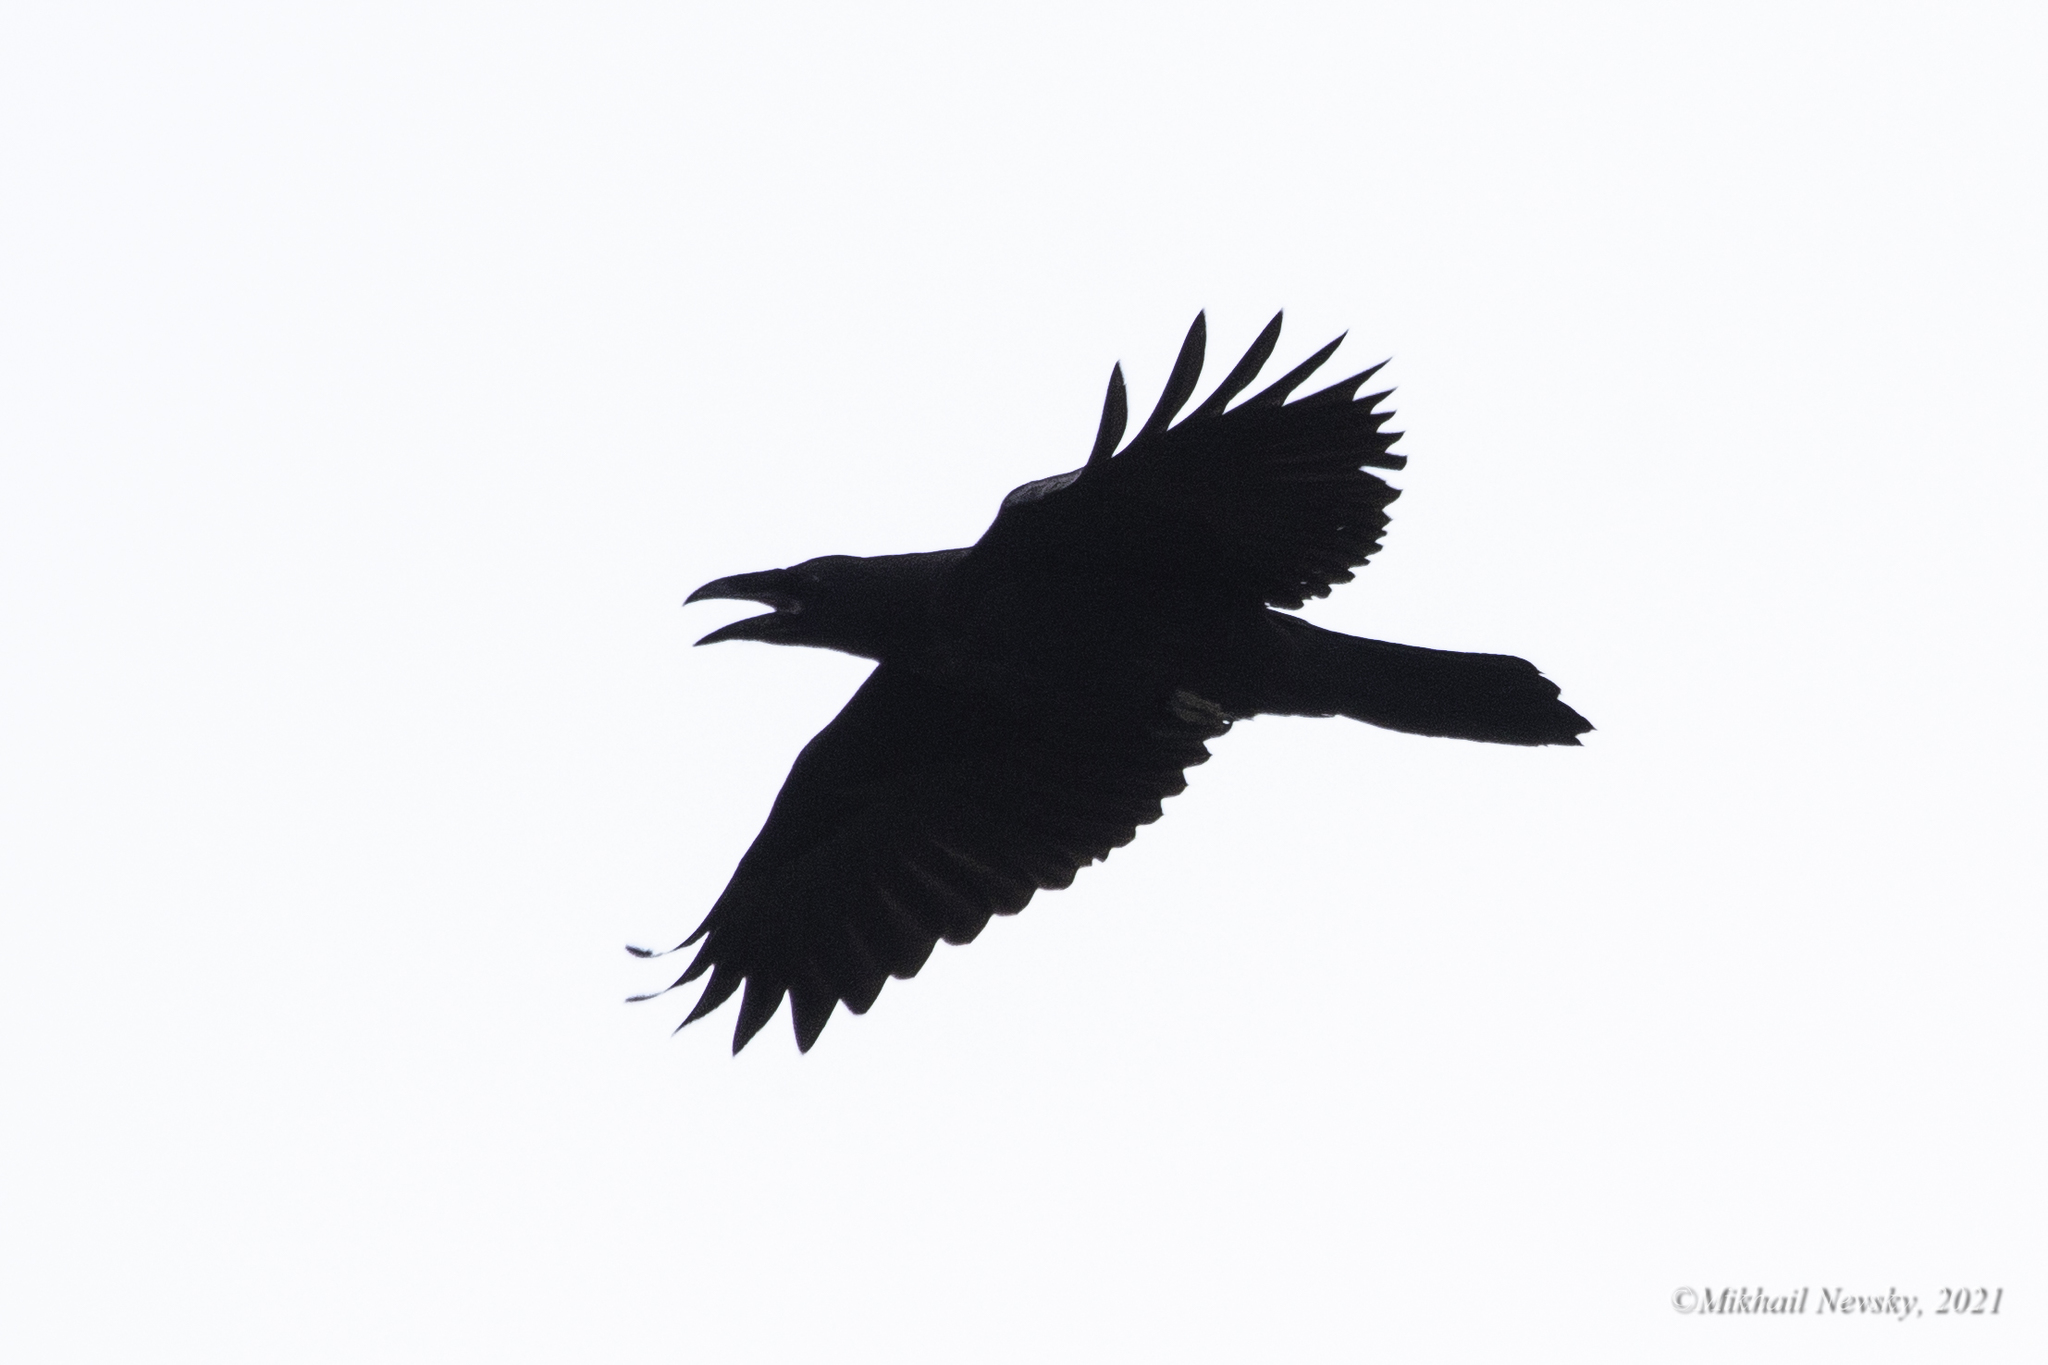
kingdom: Animalia
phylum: Chordata
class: Aves
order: Passeriformes
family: Corvidae
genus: Corvus
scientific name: Corvus corax
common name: Common raven
